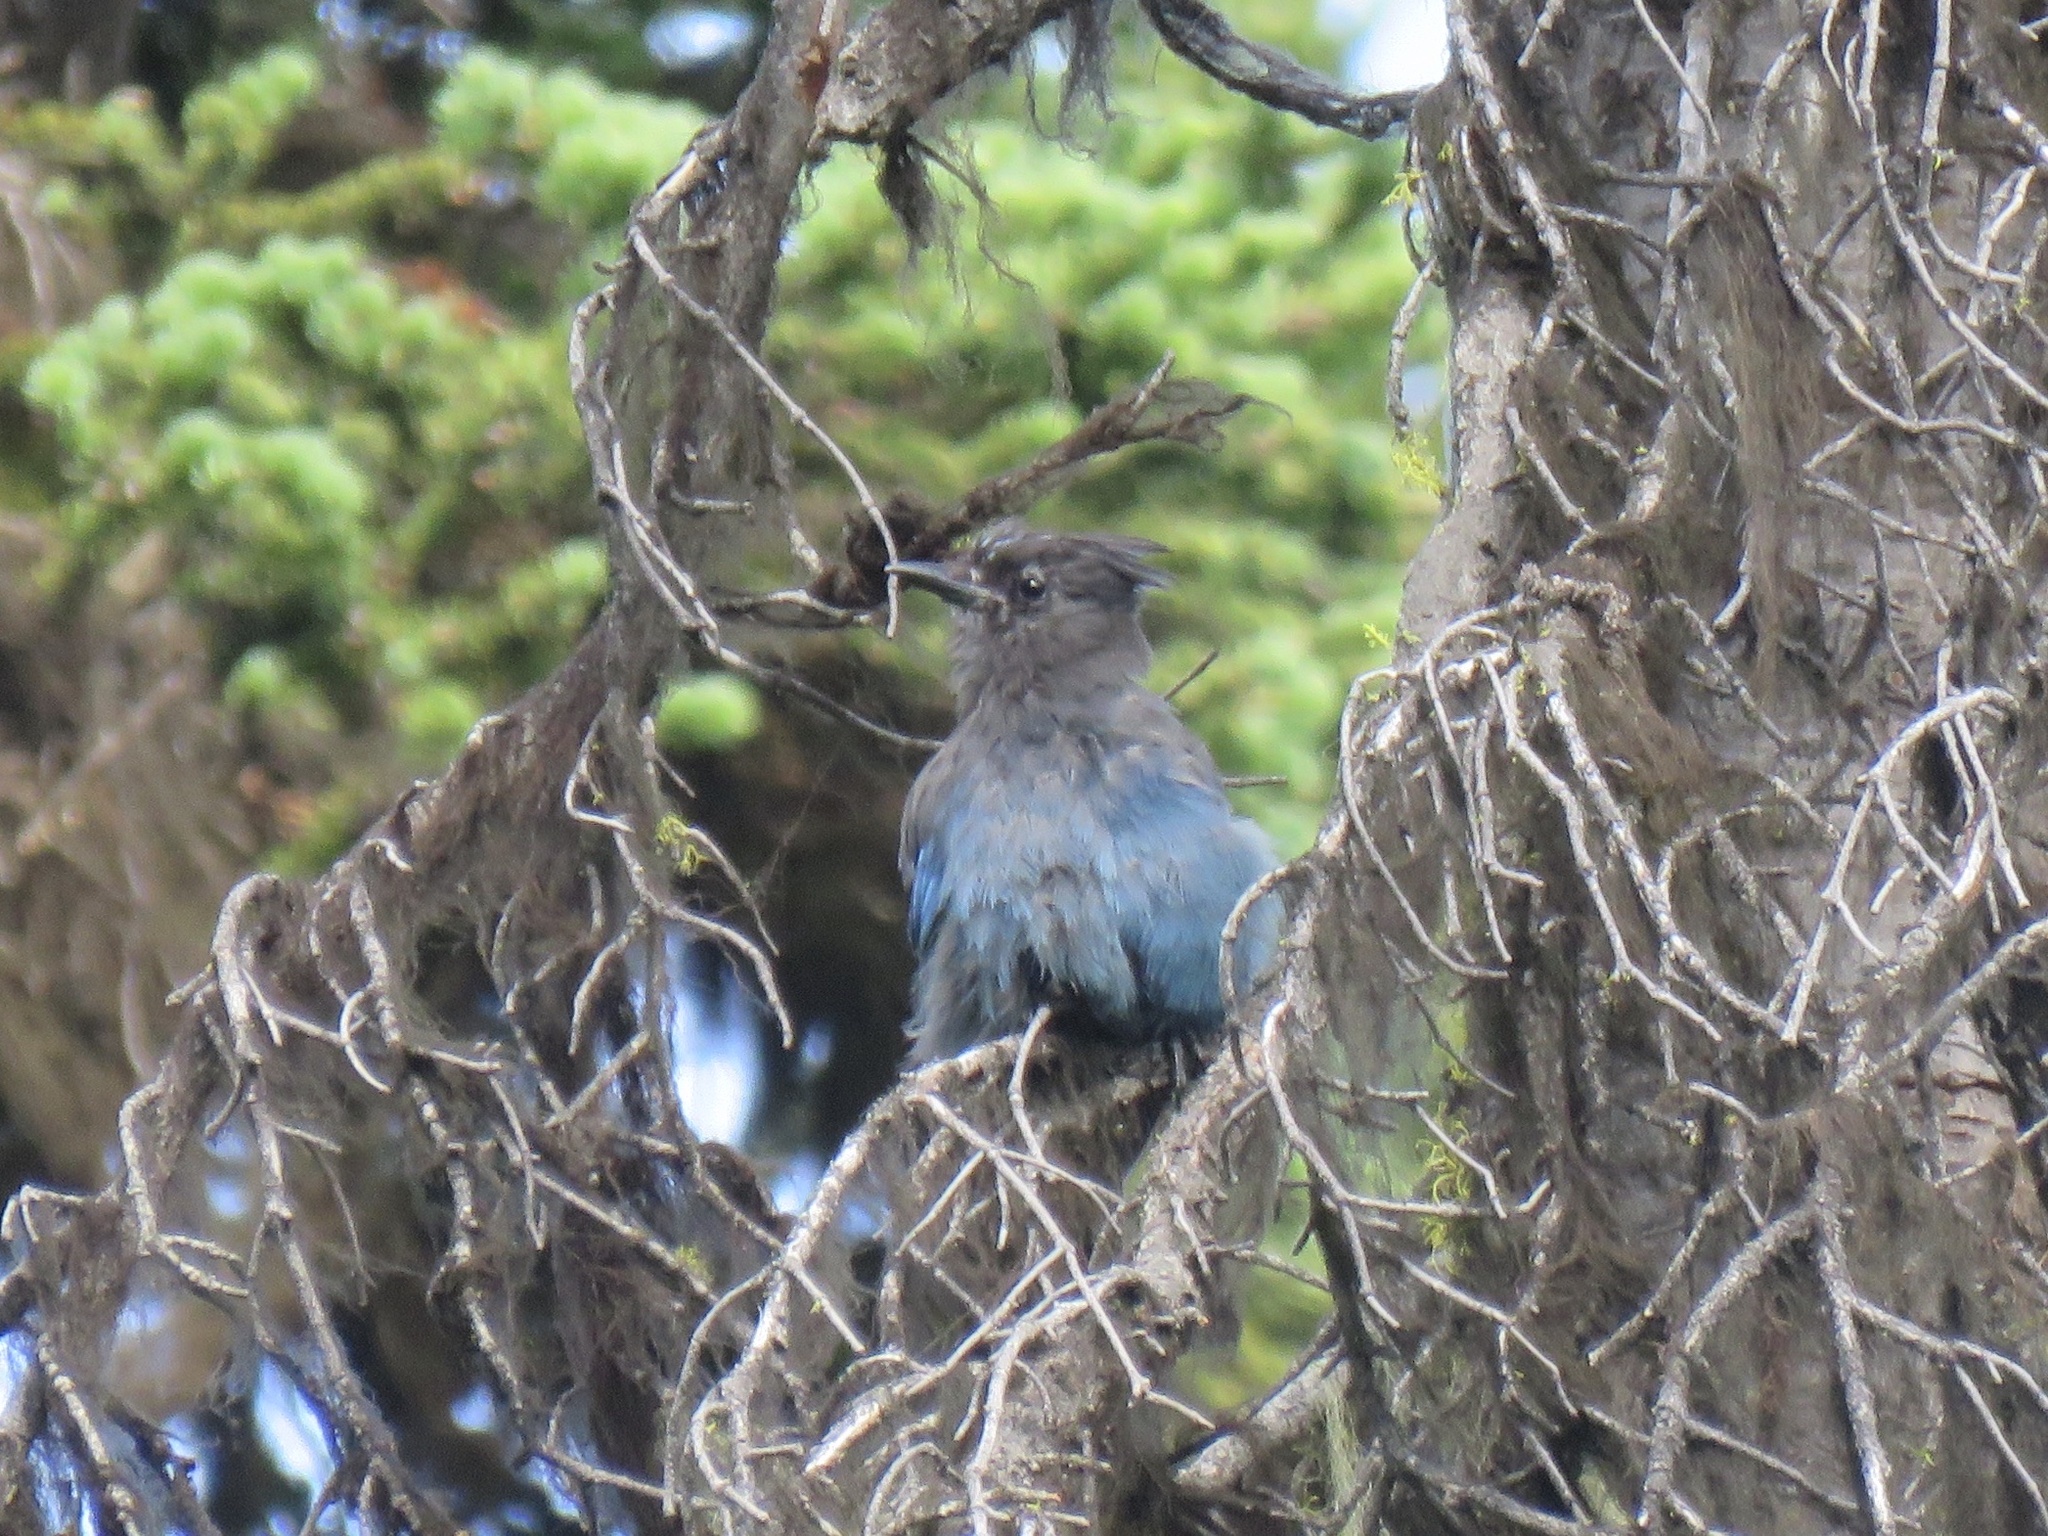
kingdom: Animalia
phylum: Chordata
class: Aves
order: Passeriformes
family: Corvidae
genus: Cyanocitta
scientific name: Cyanocitta stelleri
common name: Steller's jay
